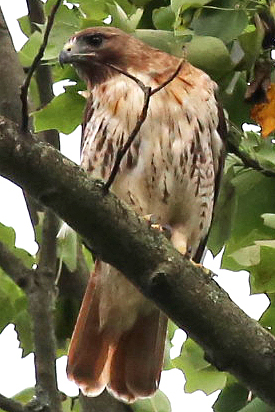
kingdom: Animalia
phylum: Chordata
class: Aves
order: Accipitriformes
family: Accipitridae
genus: Buteo
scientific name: Buteo jamaicensis
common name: Red-tailed hawk
